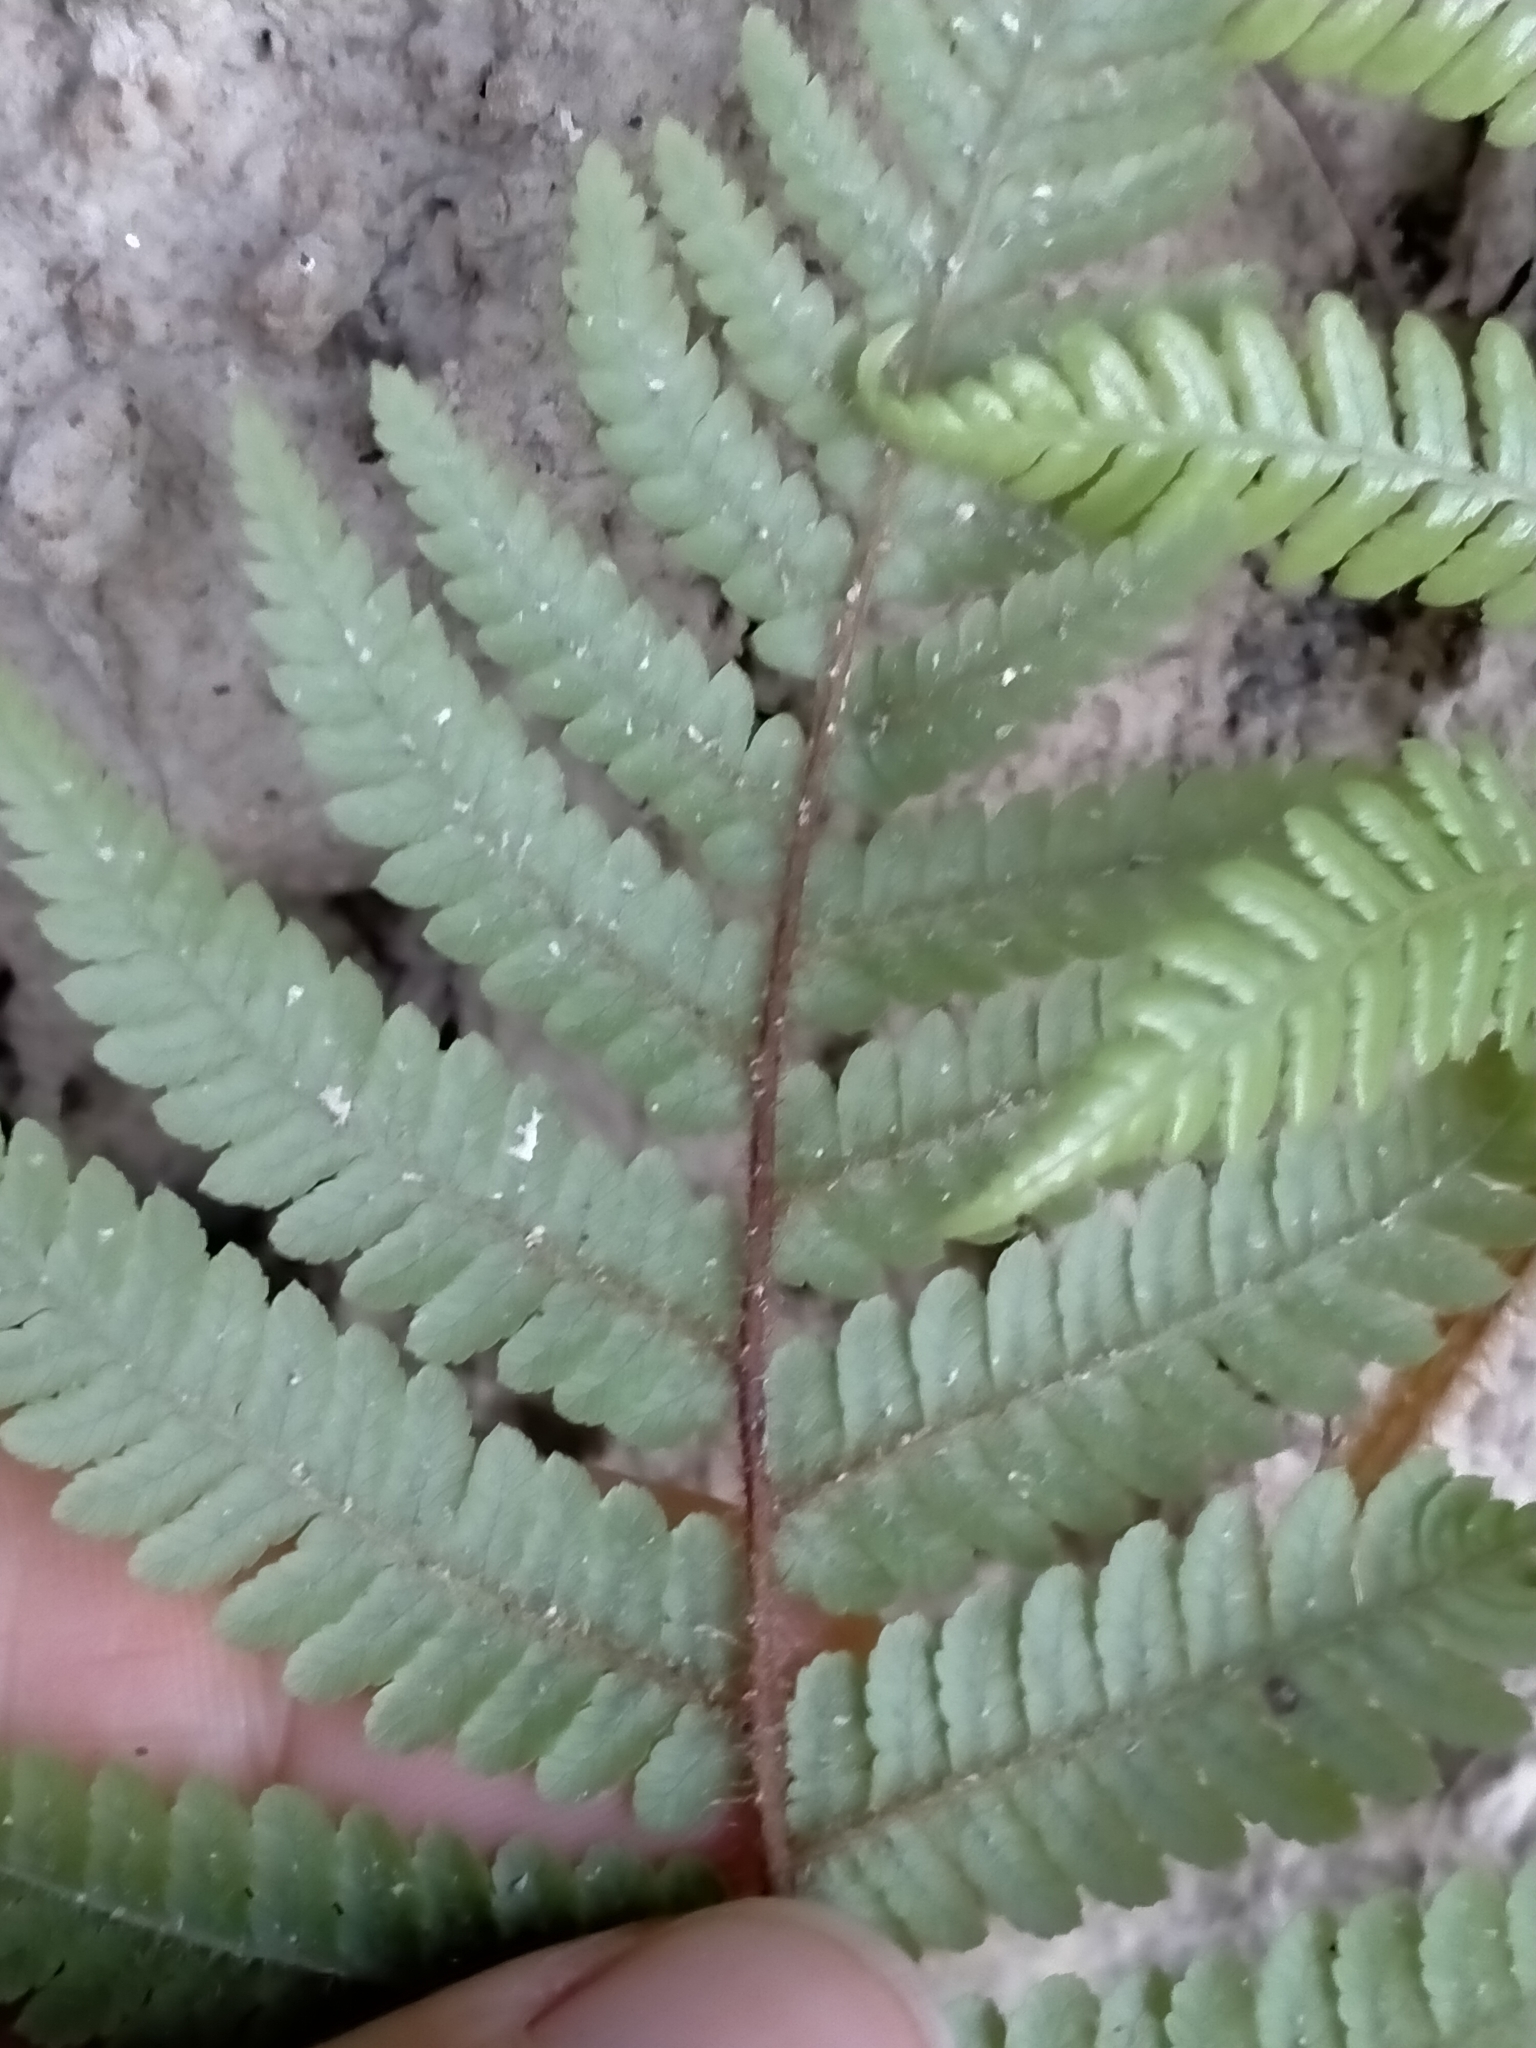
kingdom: Plantae
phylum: Tracheophyta
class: Polypodiopsida
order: Cyatheales
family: Dicksoniaceae
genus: Dicksonia
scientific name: Dicksonia squarrosa
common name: Hard treefern
